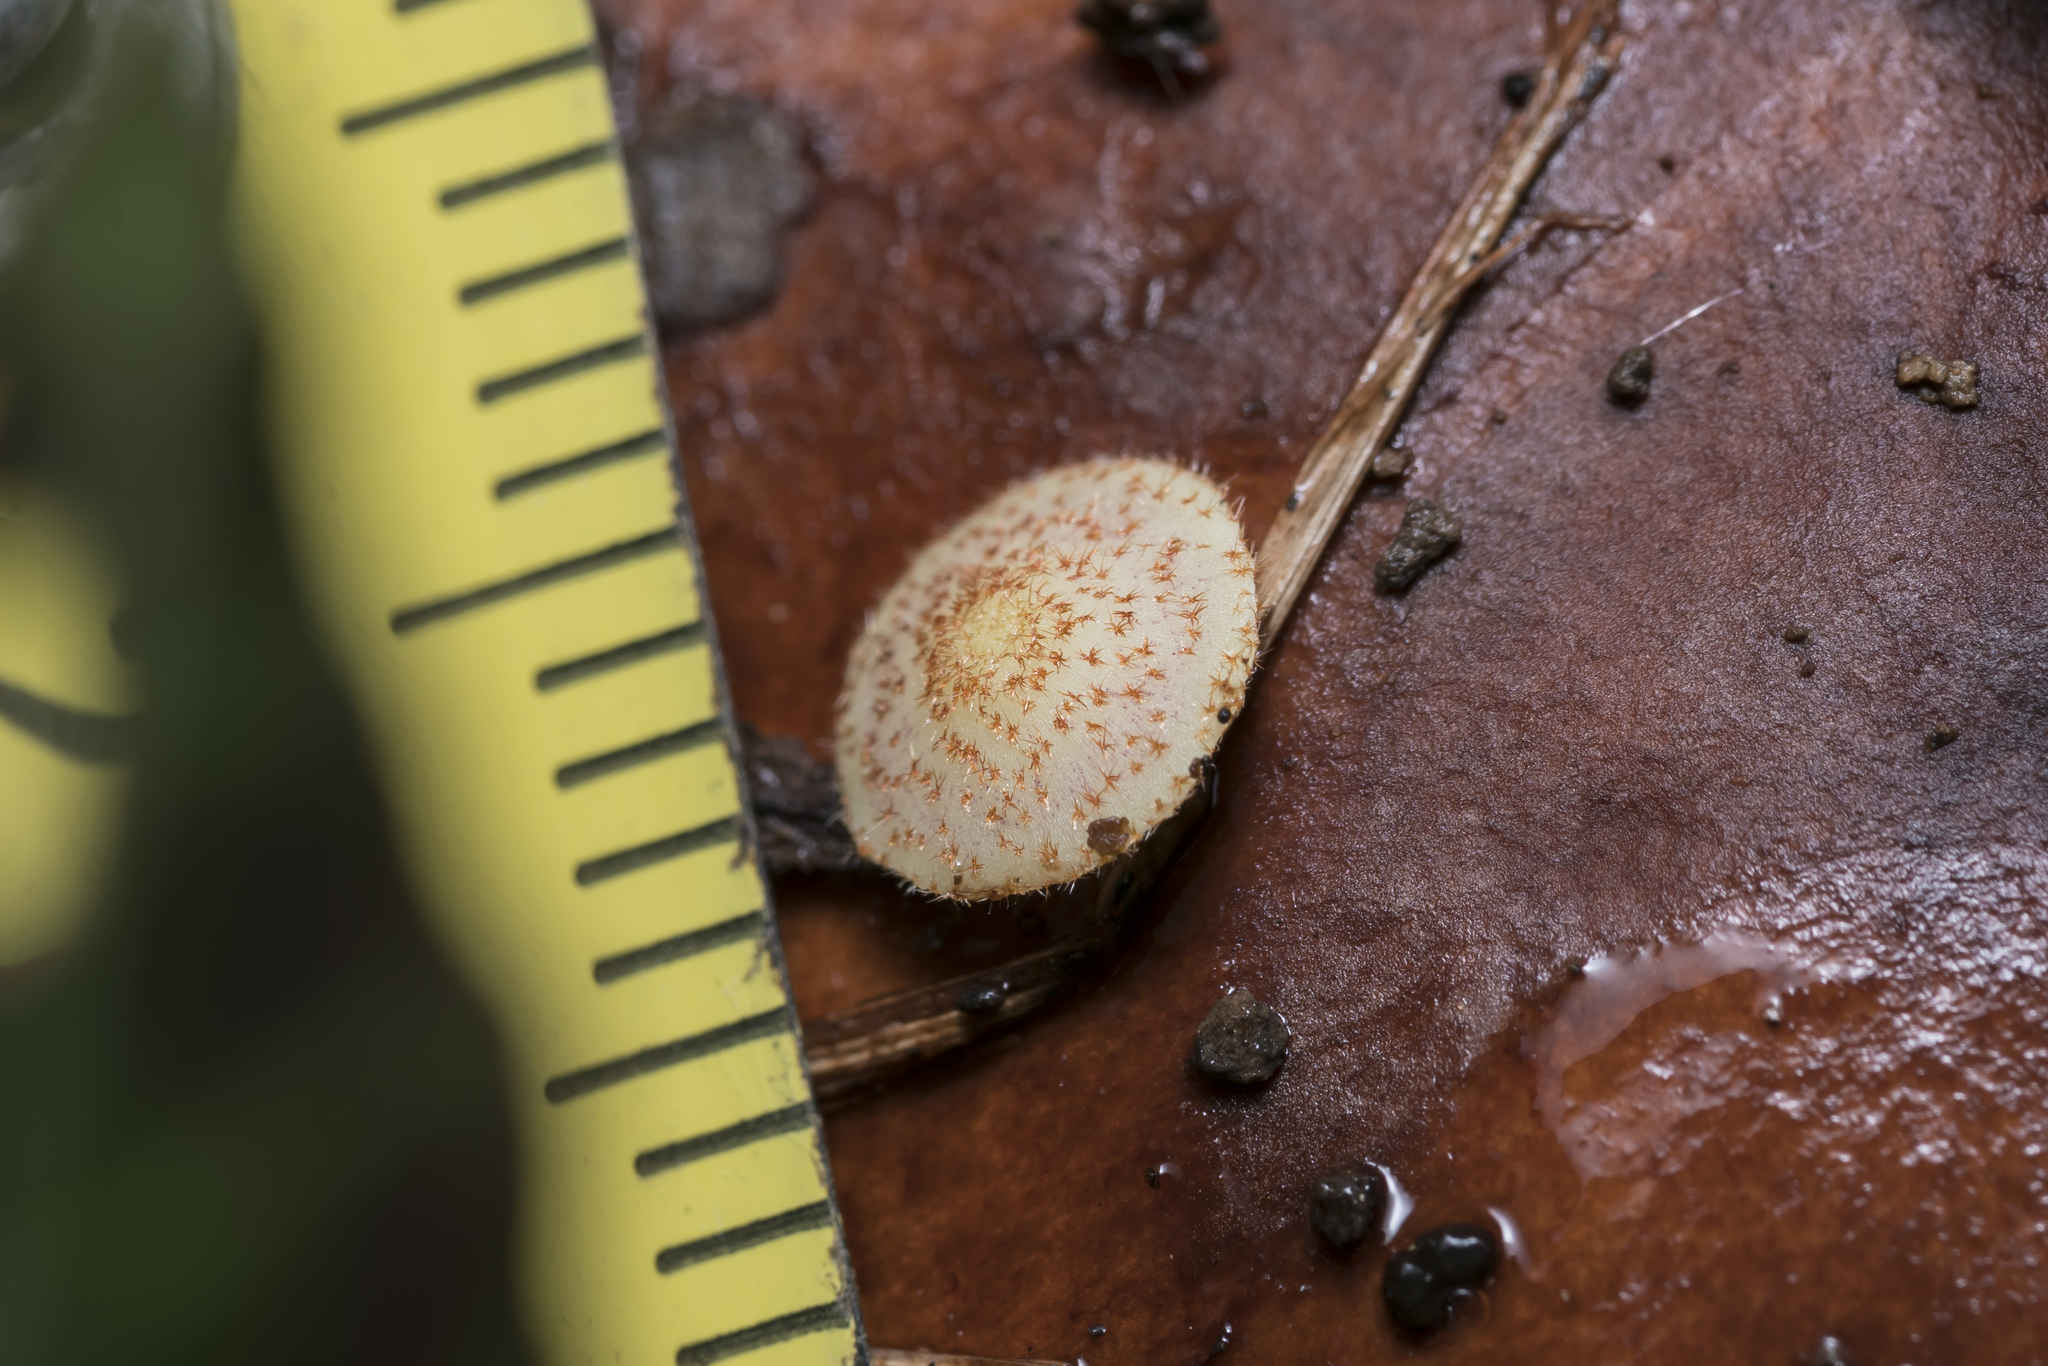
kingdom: Animalia
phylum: Arthropoda
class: Insecta
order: Hymenoptera
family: Cynipidae
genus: Neuroterus
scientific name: Neuroterus quercusbaccarum
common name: Common spangle gall
